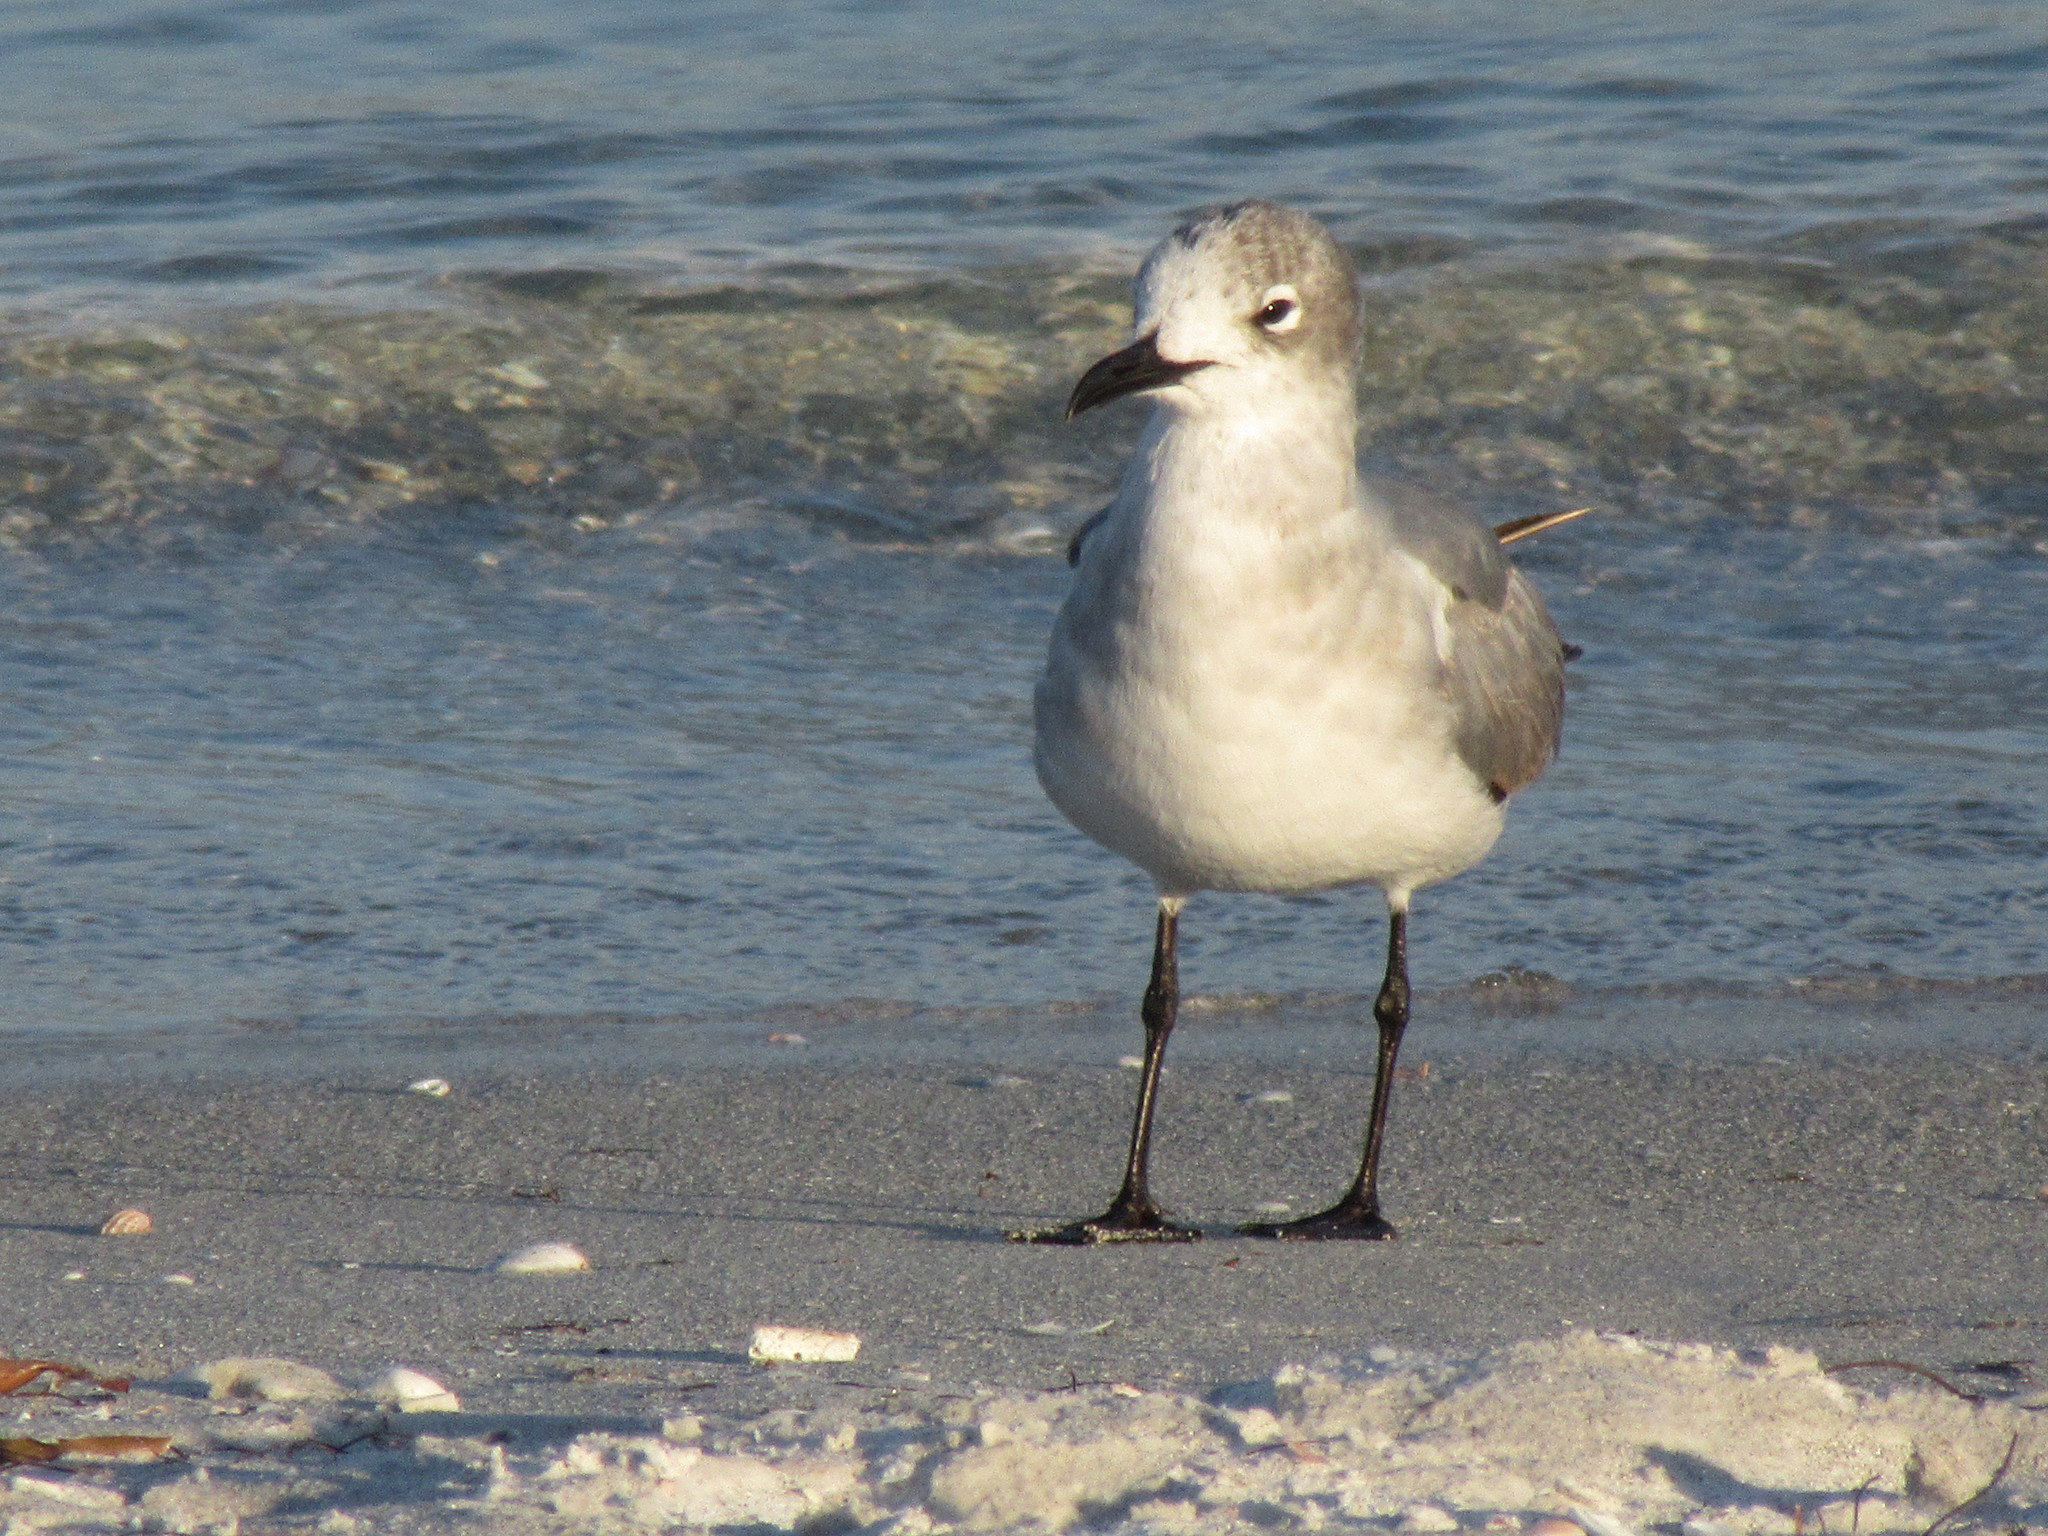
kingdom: Animalia
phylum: Chordata
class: Aves
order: Charadriiformes
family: Laridae
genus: Leucophaeus
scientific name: Leucophaeus atricilla
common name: Laughing gull
